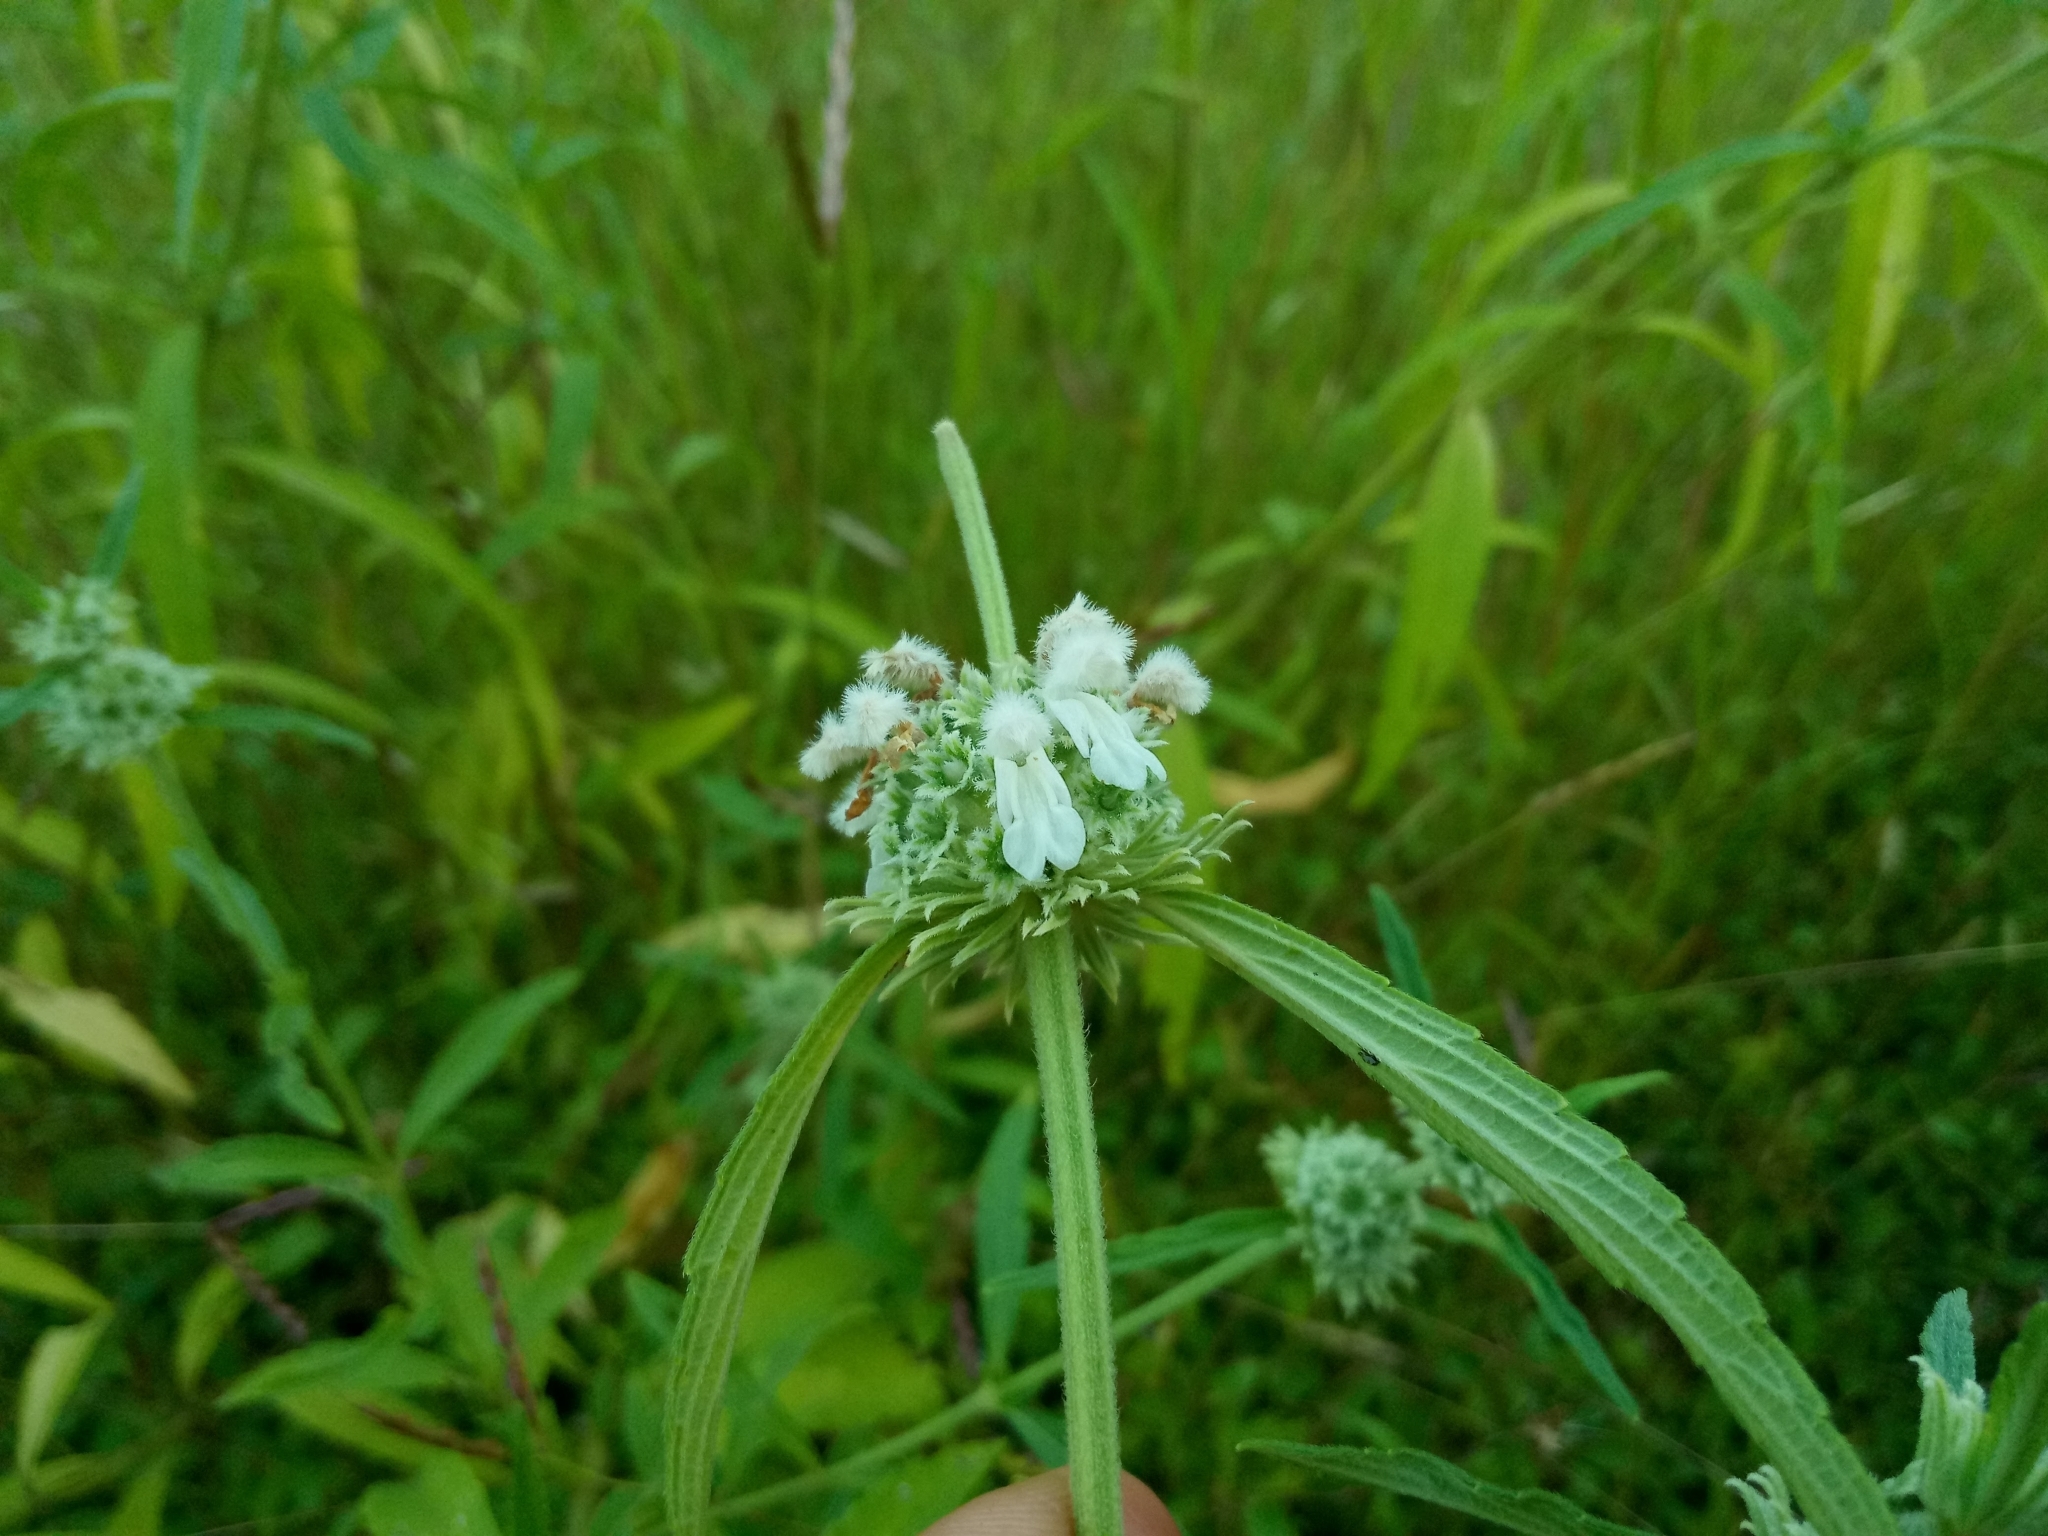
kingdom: Plantae
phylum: Tracheophyta
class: Magnoliopsida
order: Lamiales
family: Lamiaceae
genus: Leucas
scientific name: Leucas stelligera
